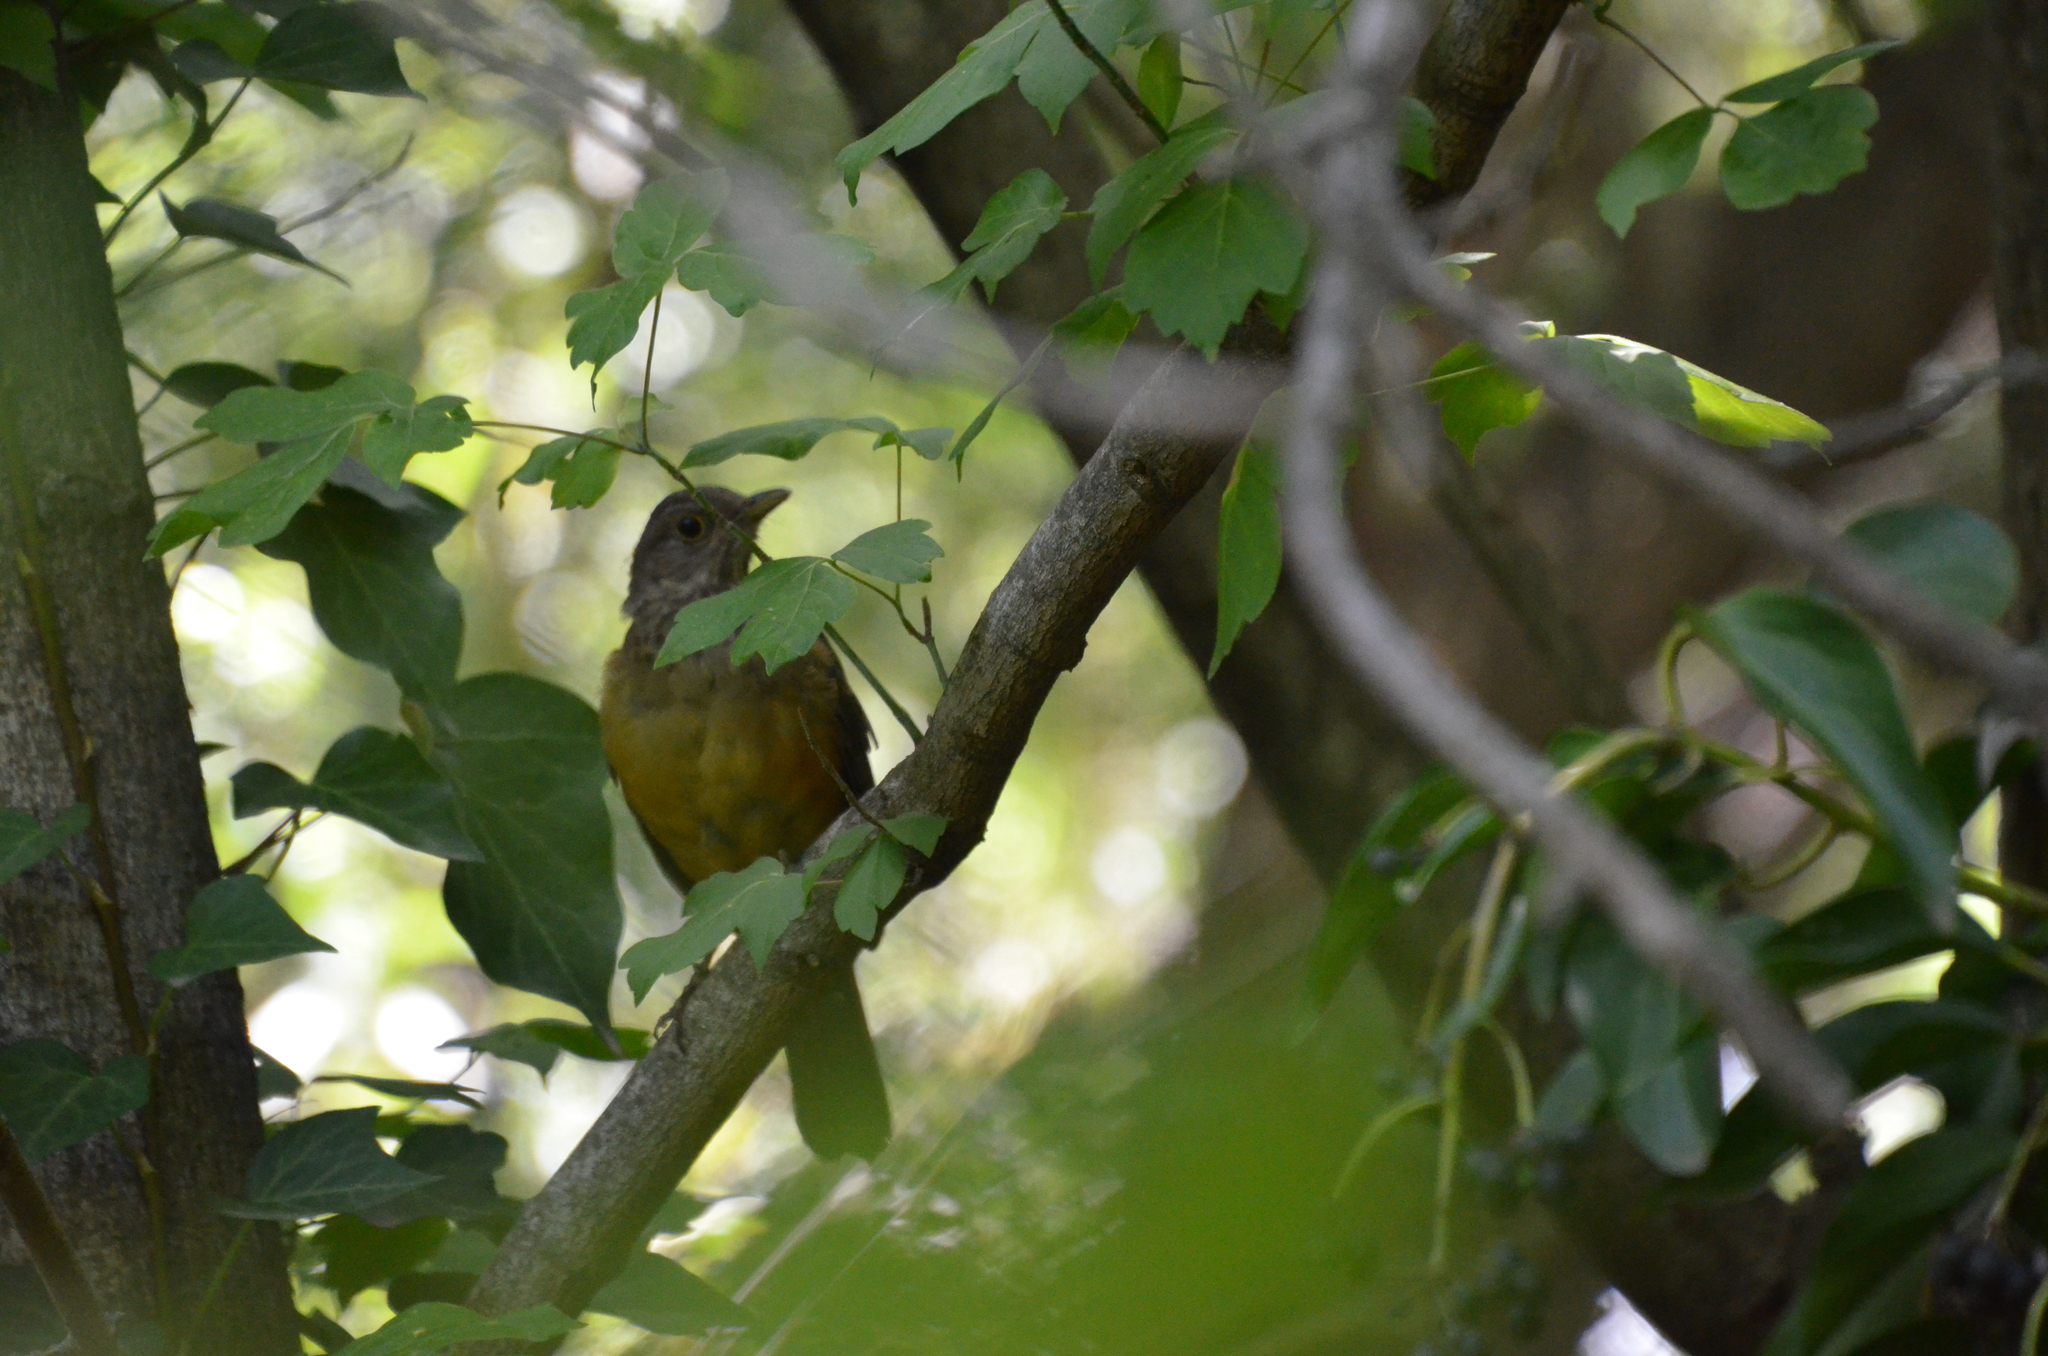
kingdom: Animalia
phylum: Chordata
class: Aves
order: Passeriformes
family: Turdidae
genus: Turdus
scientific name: Turdus rufiventris
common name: Rufous-bellied thrush
